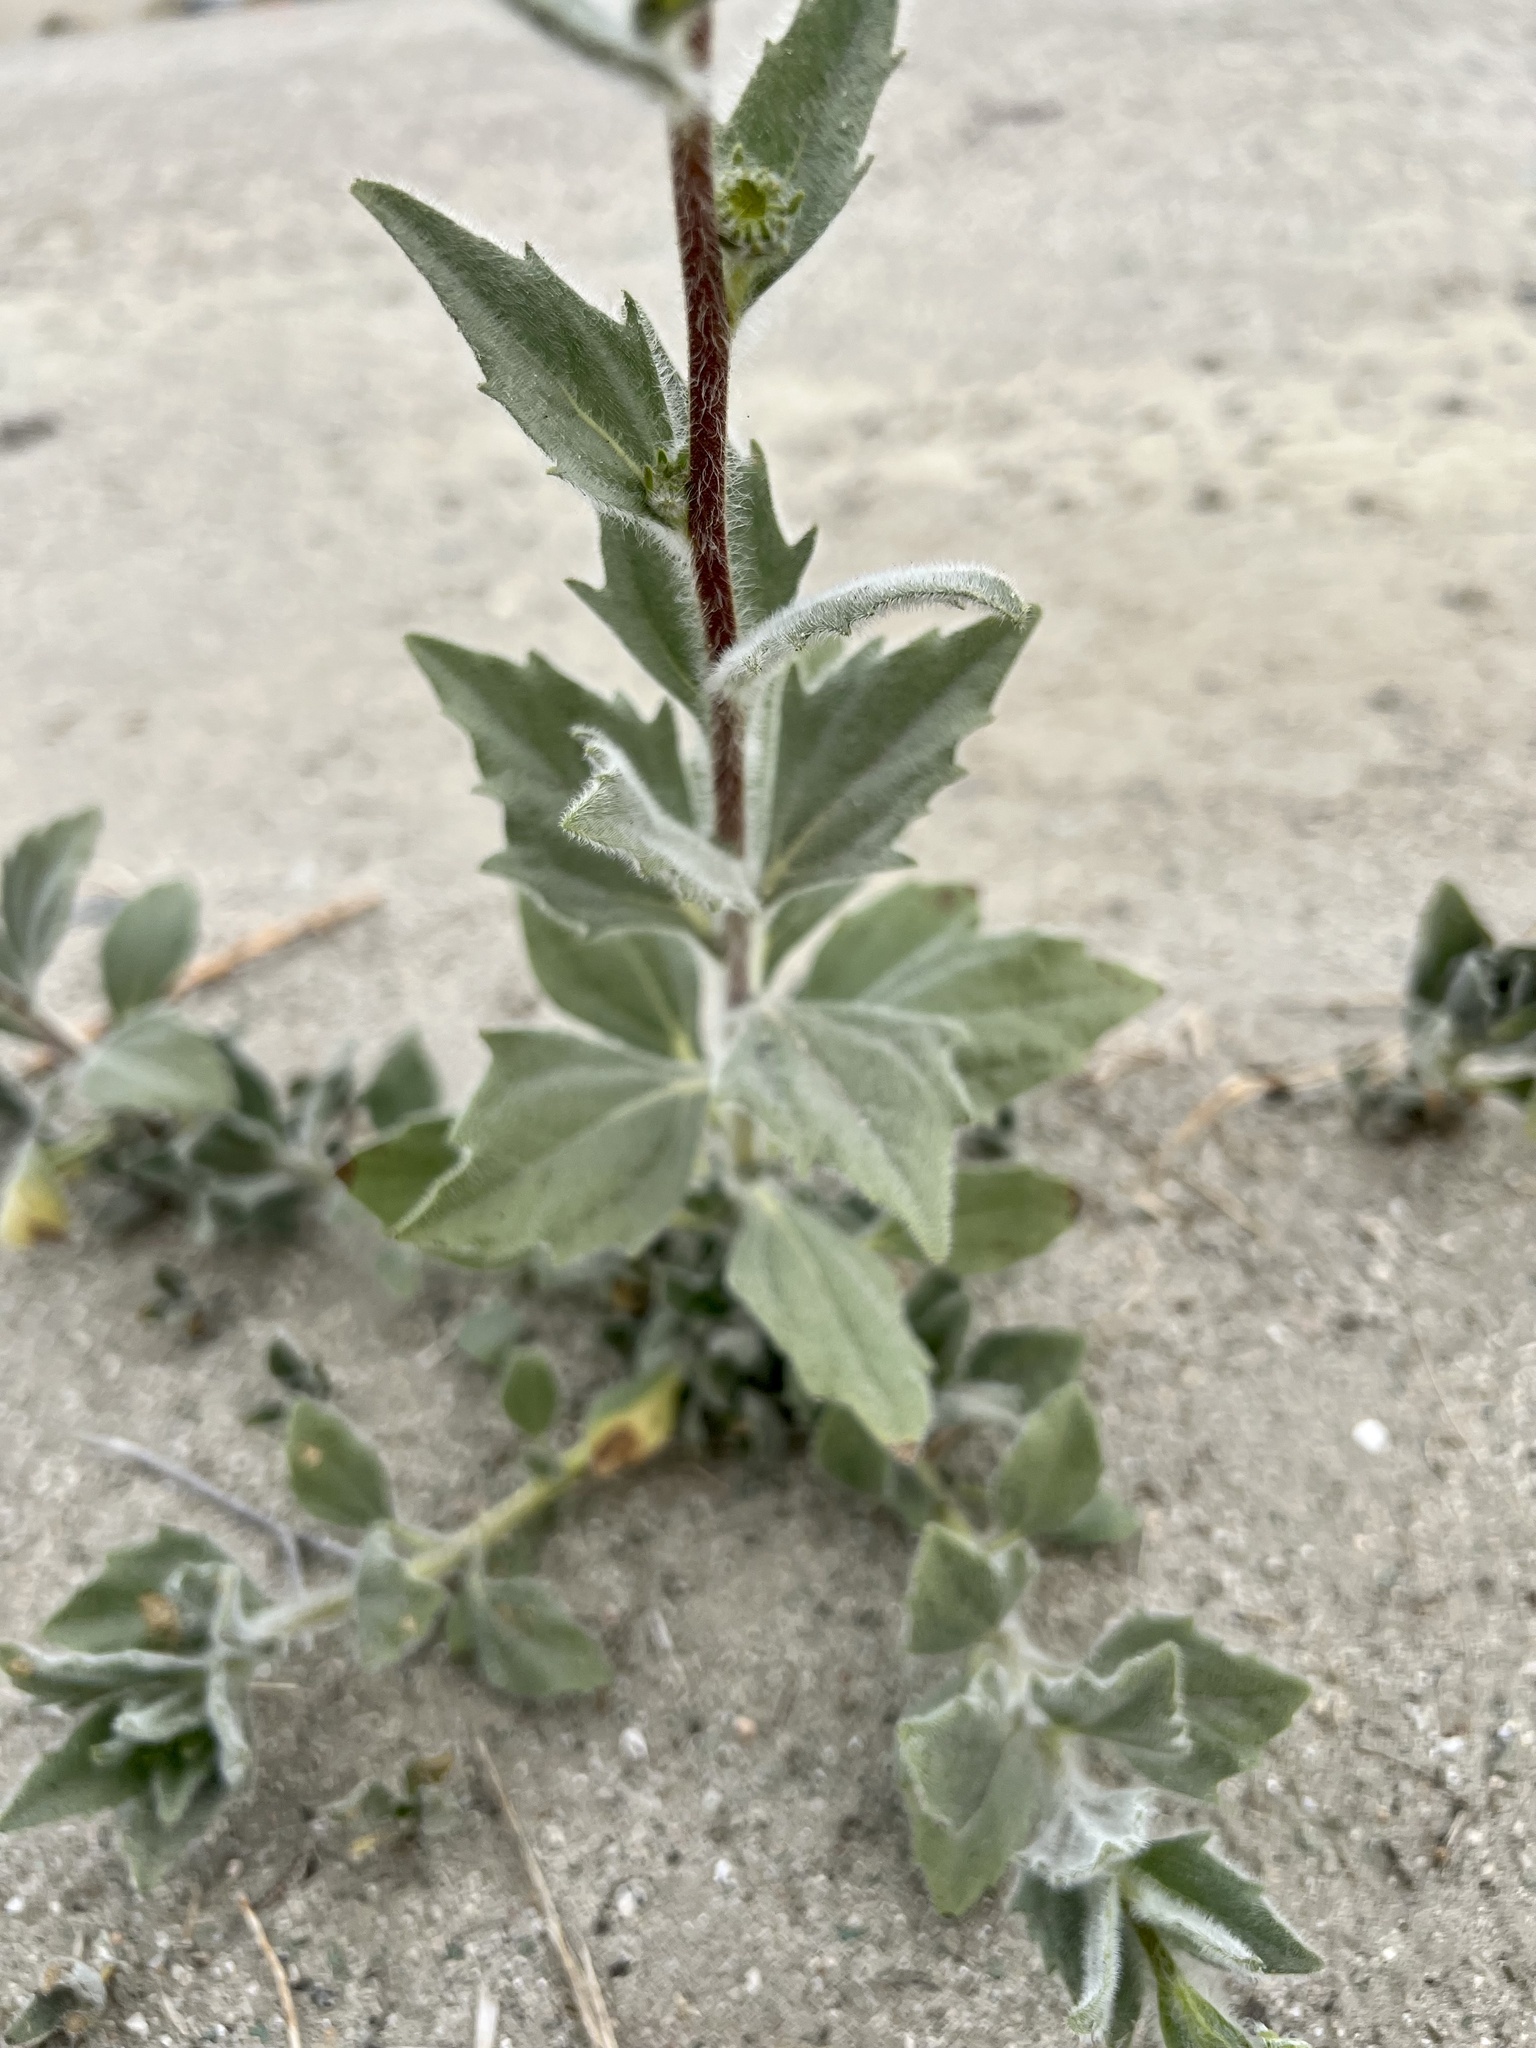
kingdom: Plantae
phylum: Tracheophyta
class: Magnoliopsida
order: Asterales
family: Asteraceae
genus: Geraea
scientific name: Geraea canescens
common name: Desert-gold
